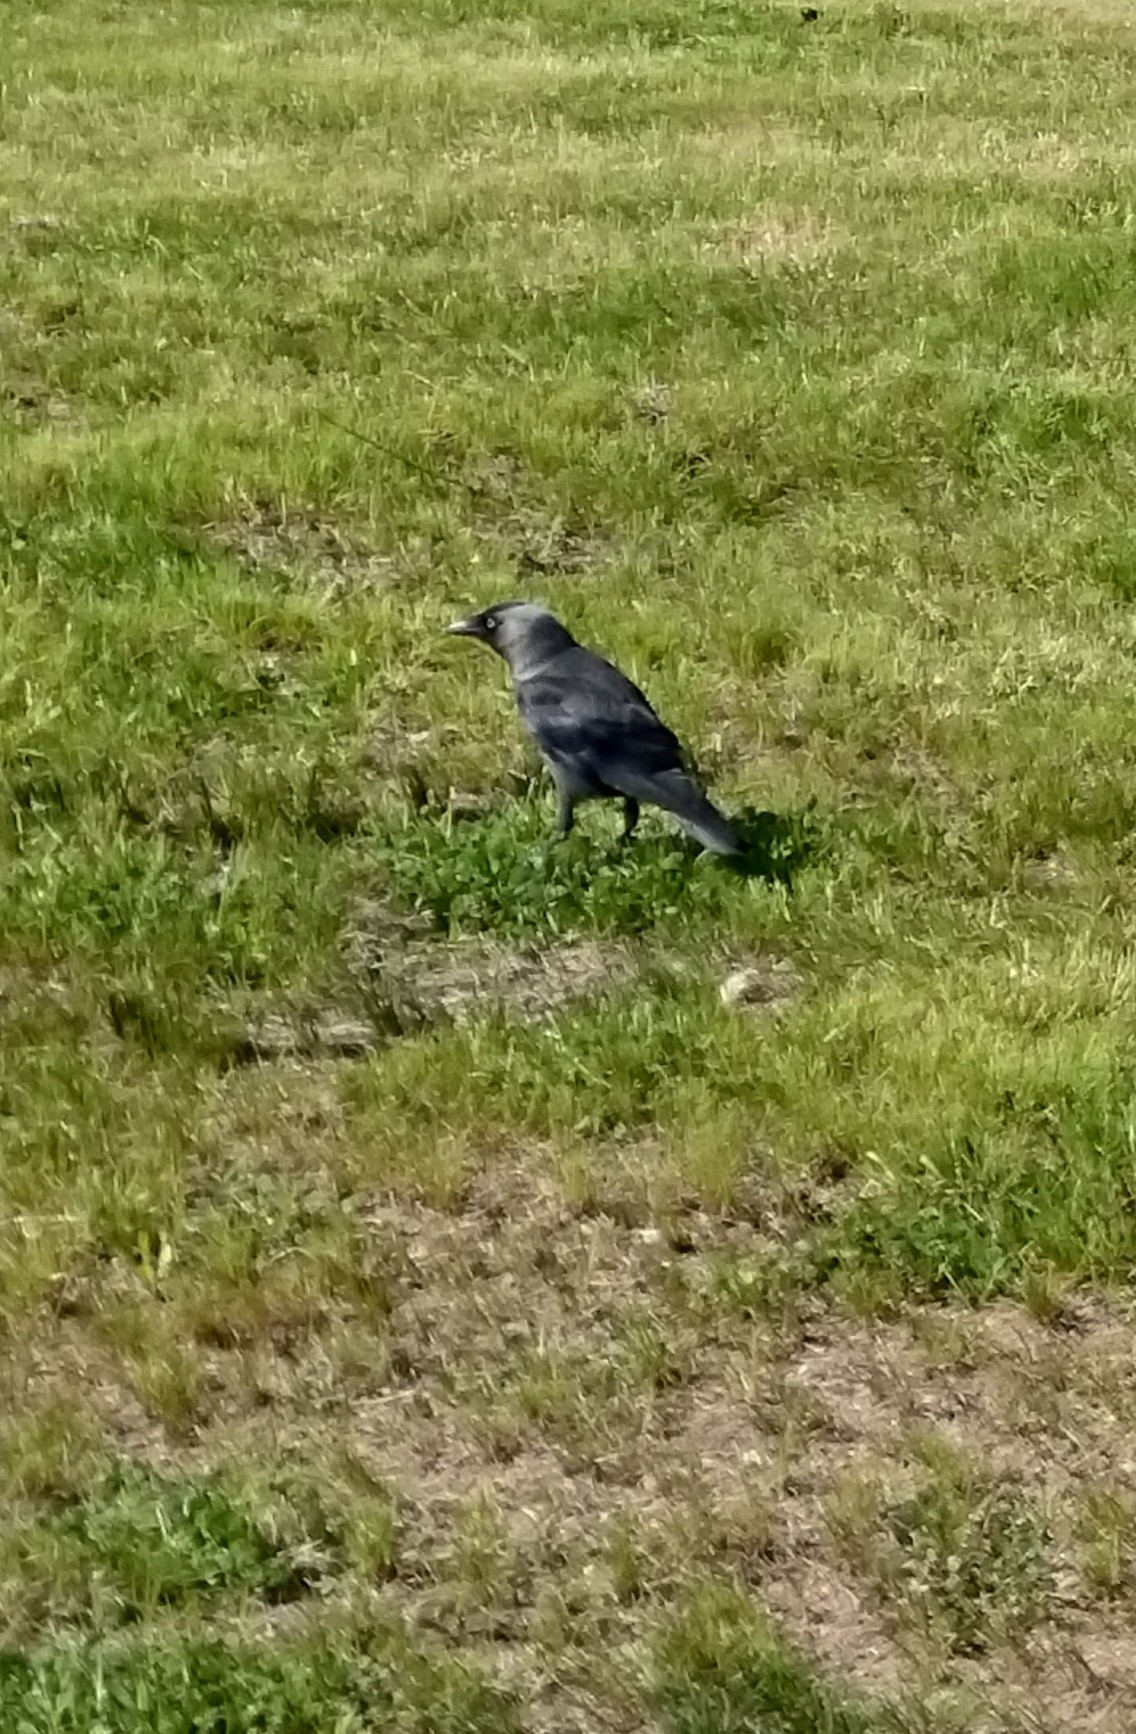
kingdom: Animalia
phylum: Chordata
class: Aves
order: Passeriformes
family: Corvidae
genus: Coloeus
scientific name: Coloeus monedula
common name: Western jackdaw
